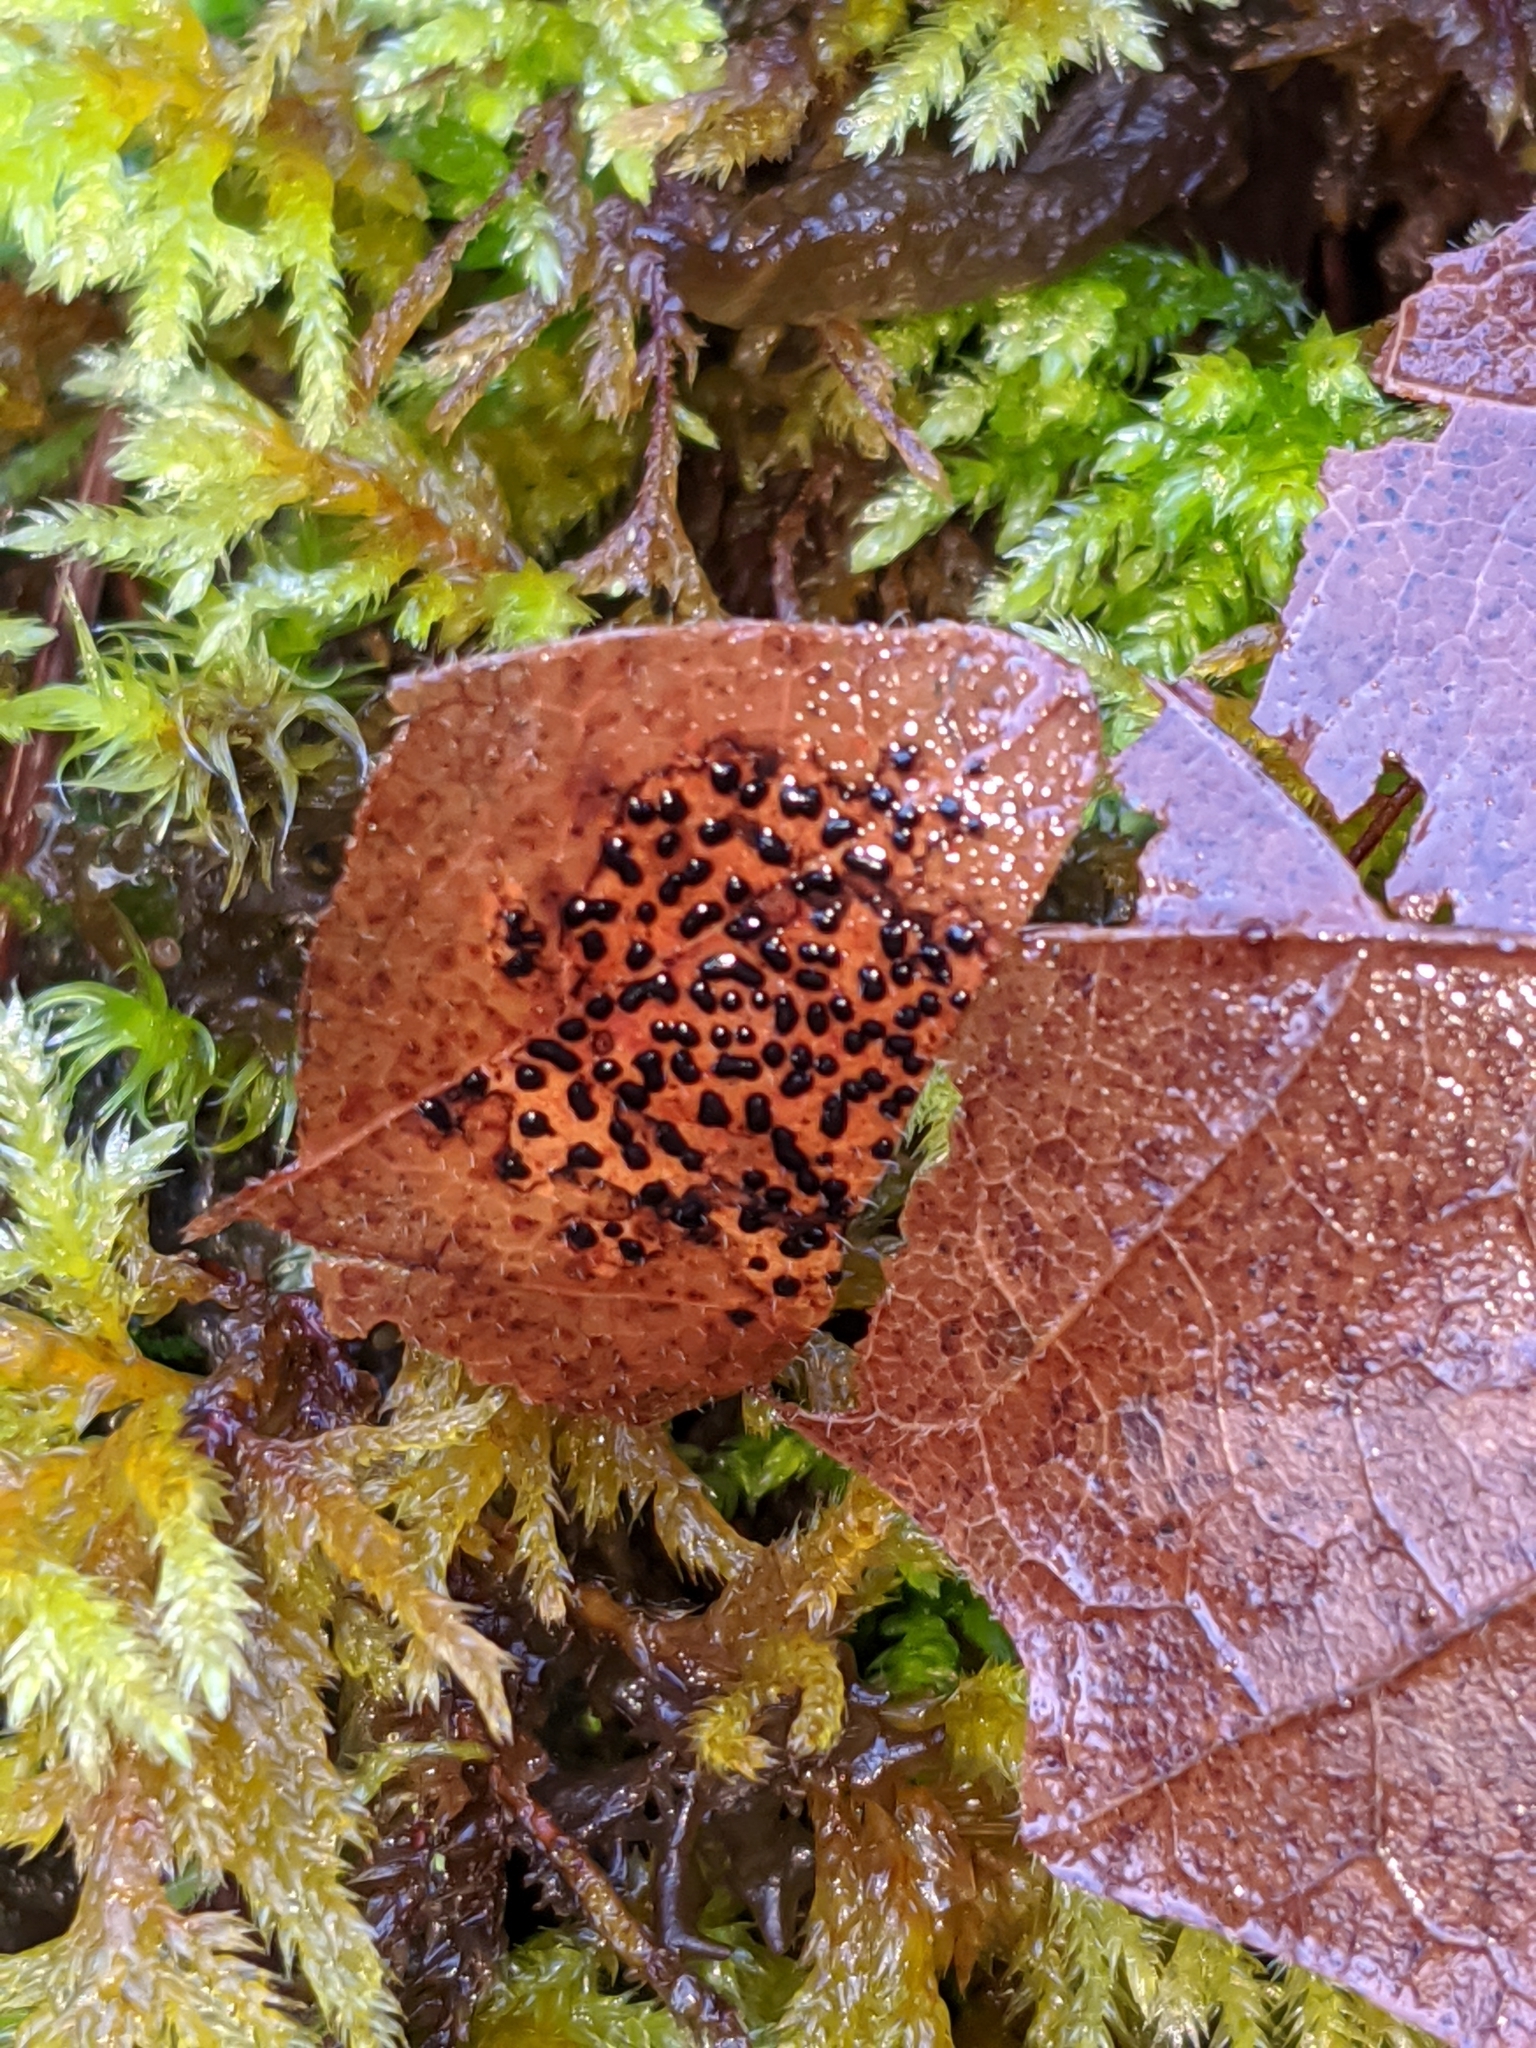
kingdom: Fungi
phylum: Ascomycota
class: Leotiomycetes
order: Rhytismatales
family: Rhytismataceae
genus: Rhytisma
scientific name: Rhytisma punctatum
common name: Speckled tar spot
